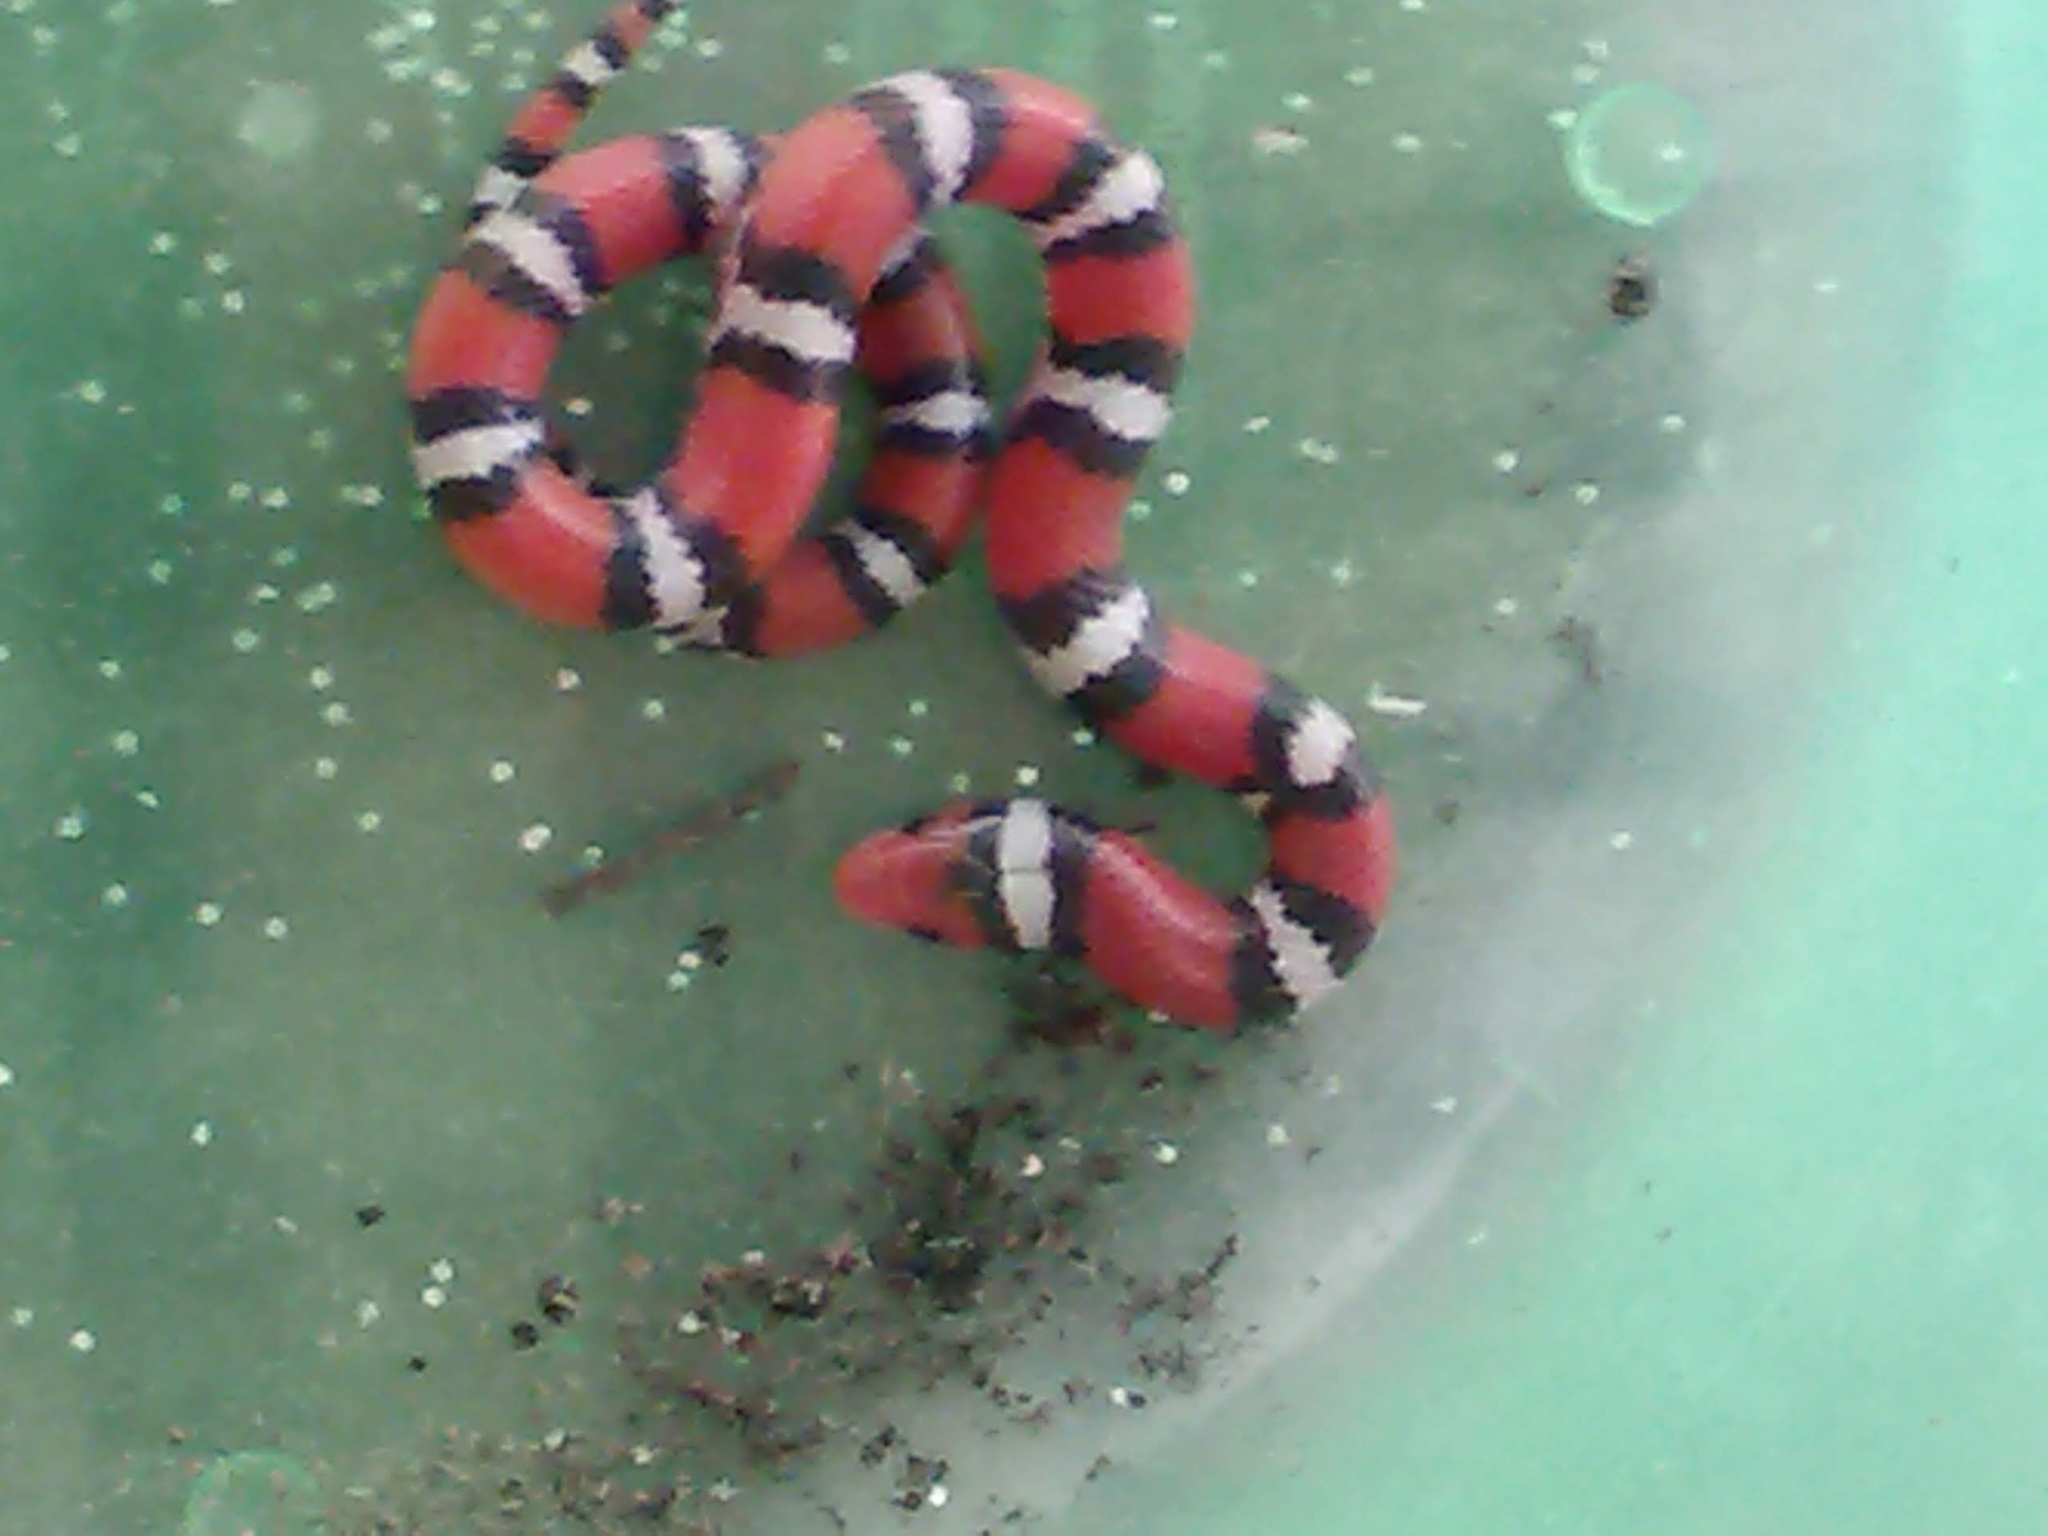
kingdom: Animalia
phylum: Chordata
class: Squamata
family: Colubridae
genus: Lampropeltis
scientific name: Lampropeltis elapsoides
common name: Scarlet kingsnake
